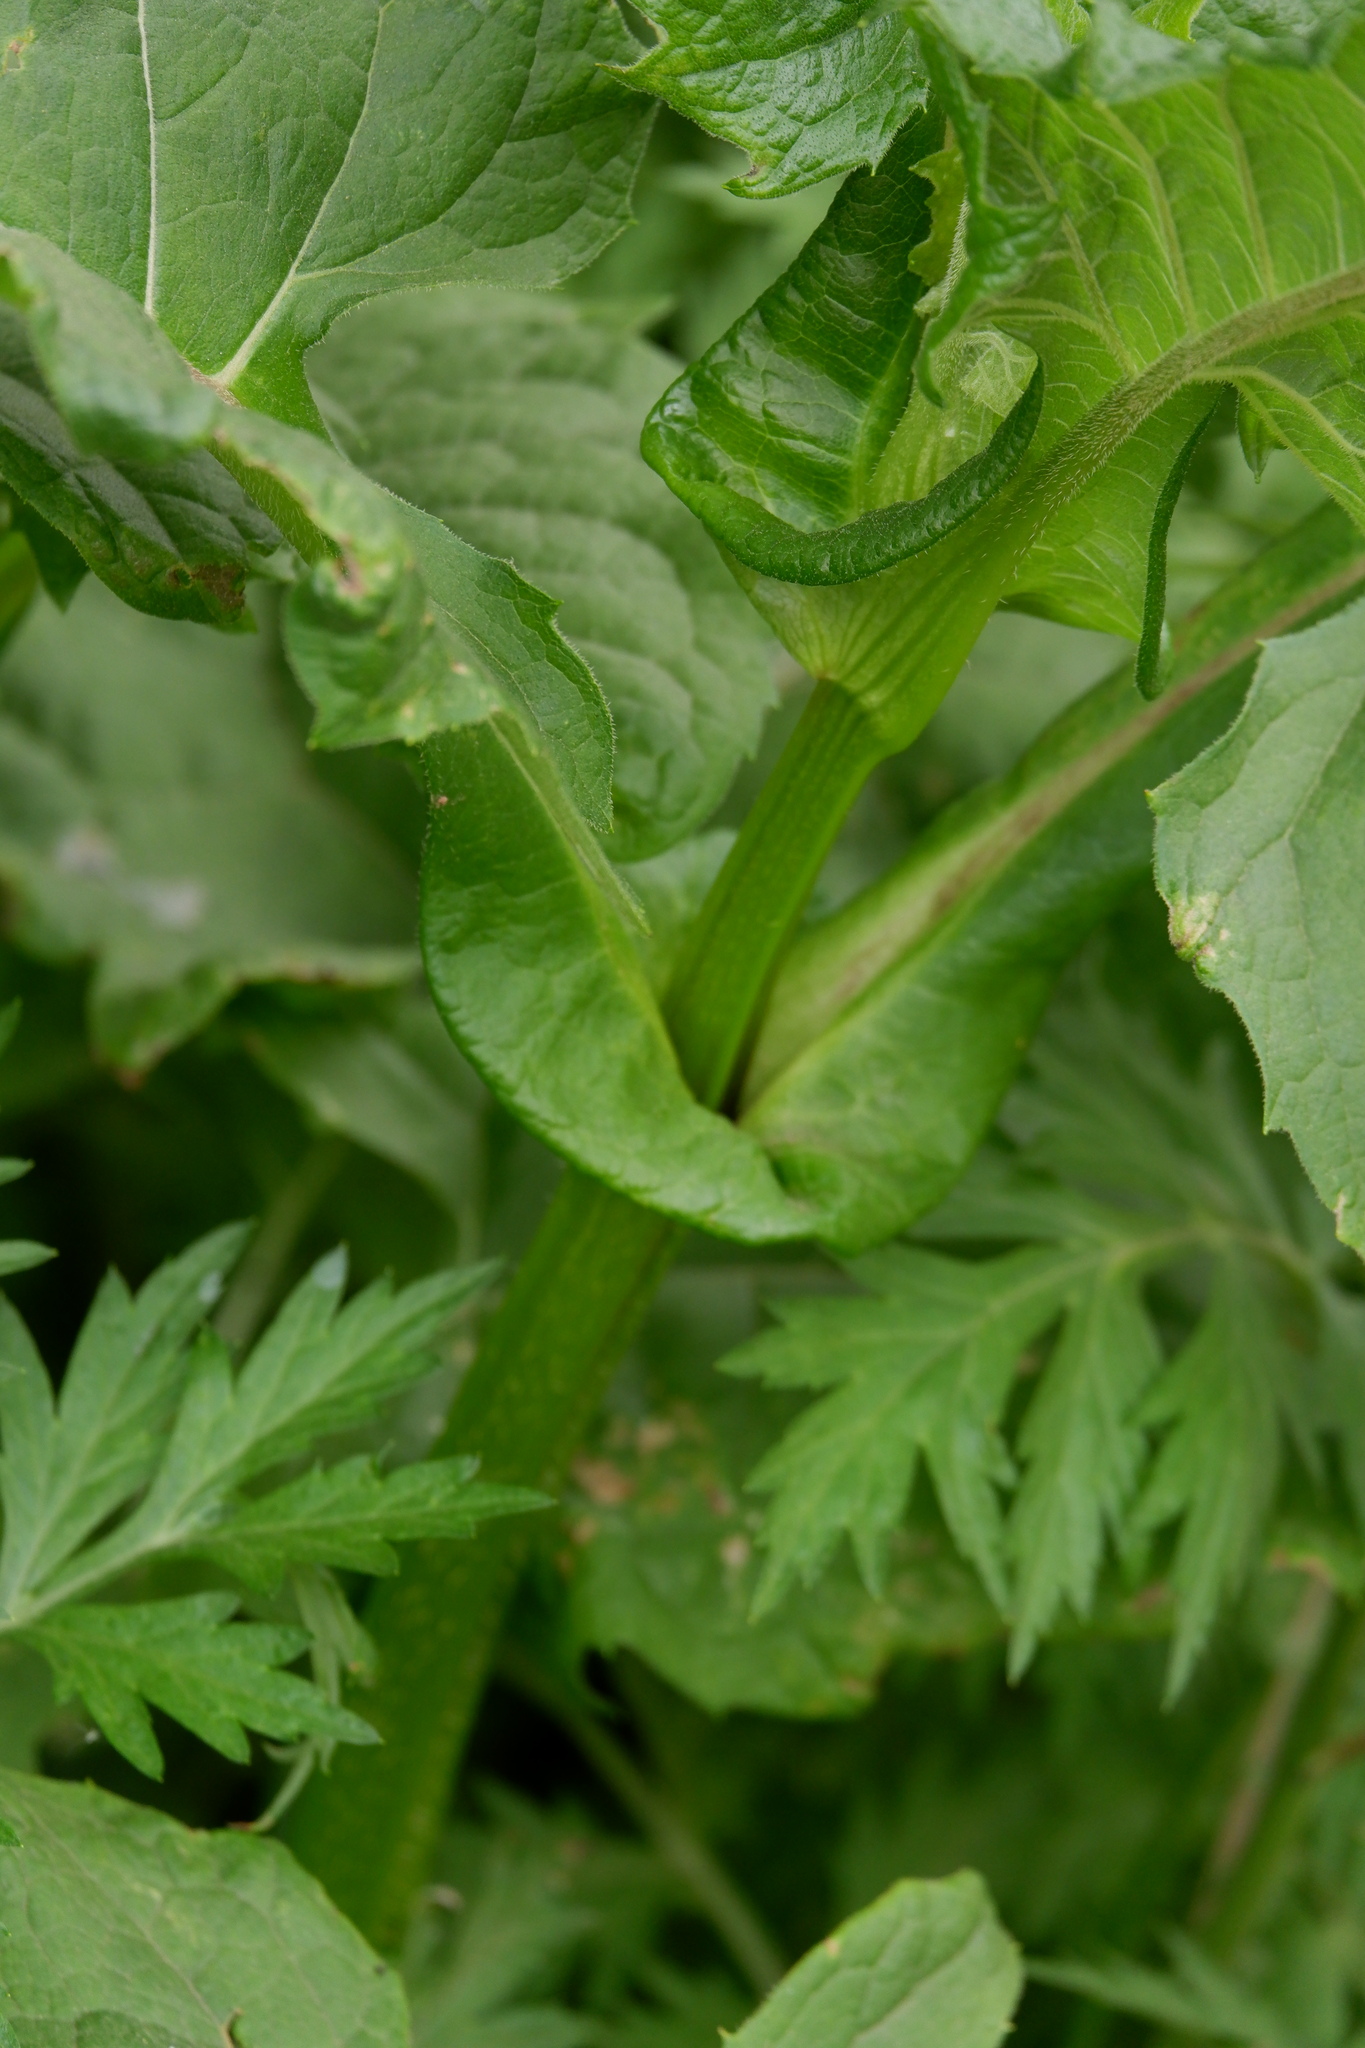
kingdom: Plantae
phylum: Tracheophyta
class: Magnoliopsida
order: Asterales
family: Asteraceae
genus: Silphium
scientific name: Silphium perfoliatum
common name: Cup-plant
